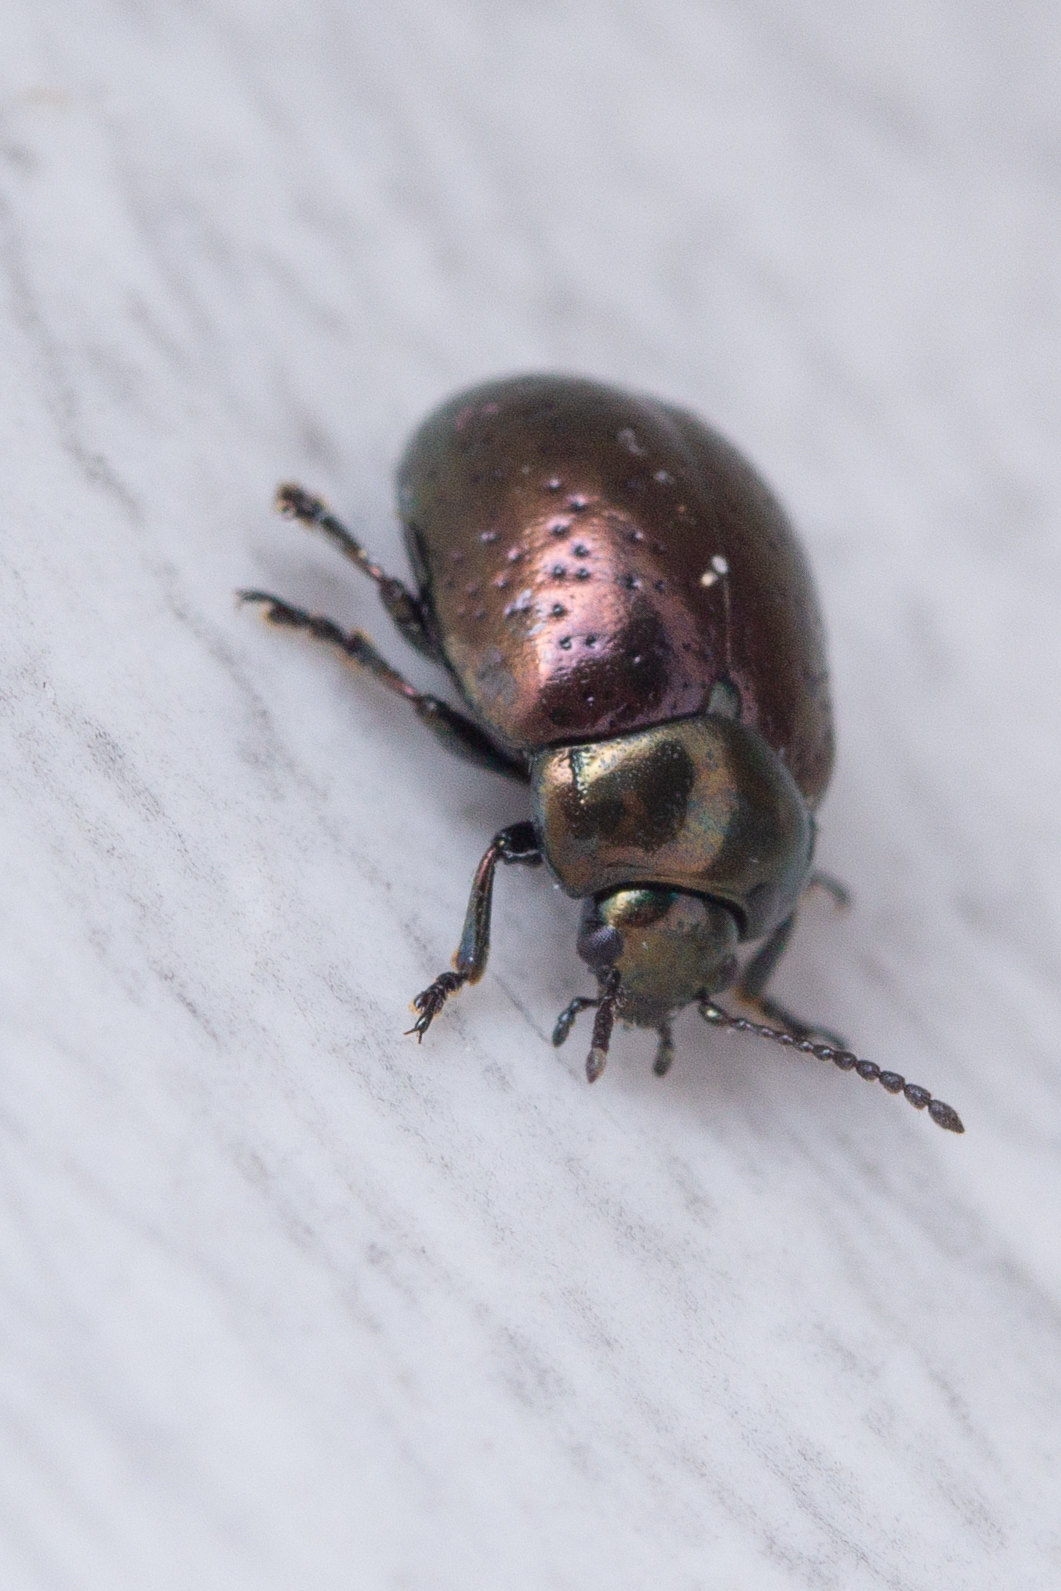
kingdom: Animalia
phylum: Arthropoda
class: Insecta
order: Coleoptera
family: Chrysomelidae
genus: Chrysolina
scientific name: Chrysolina hyperici
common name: St. johnswort beetle
